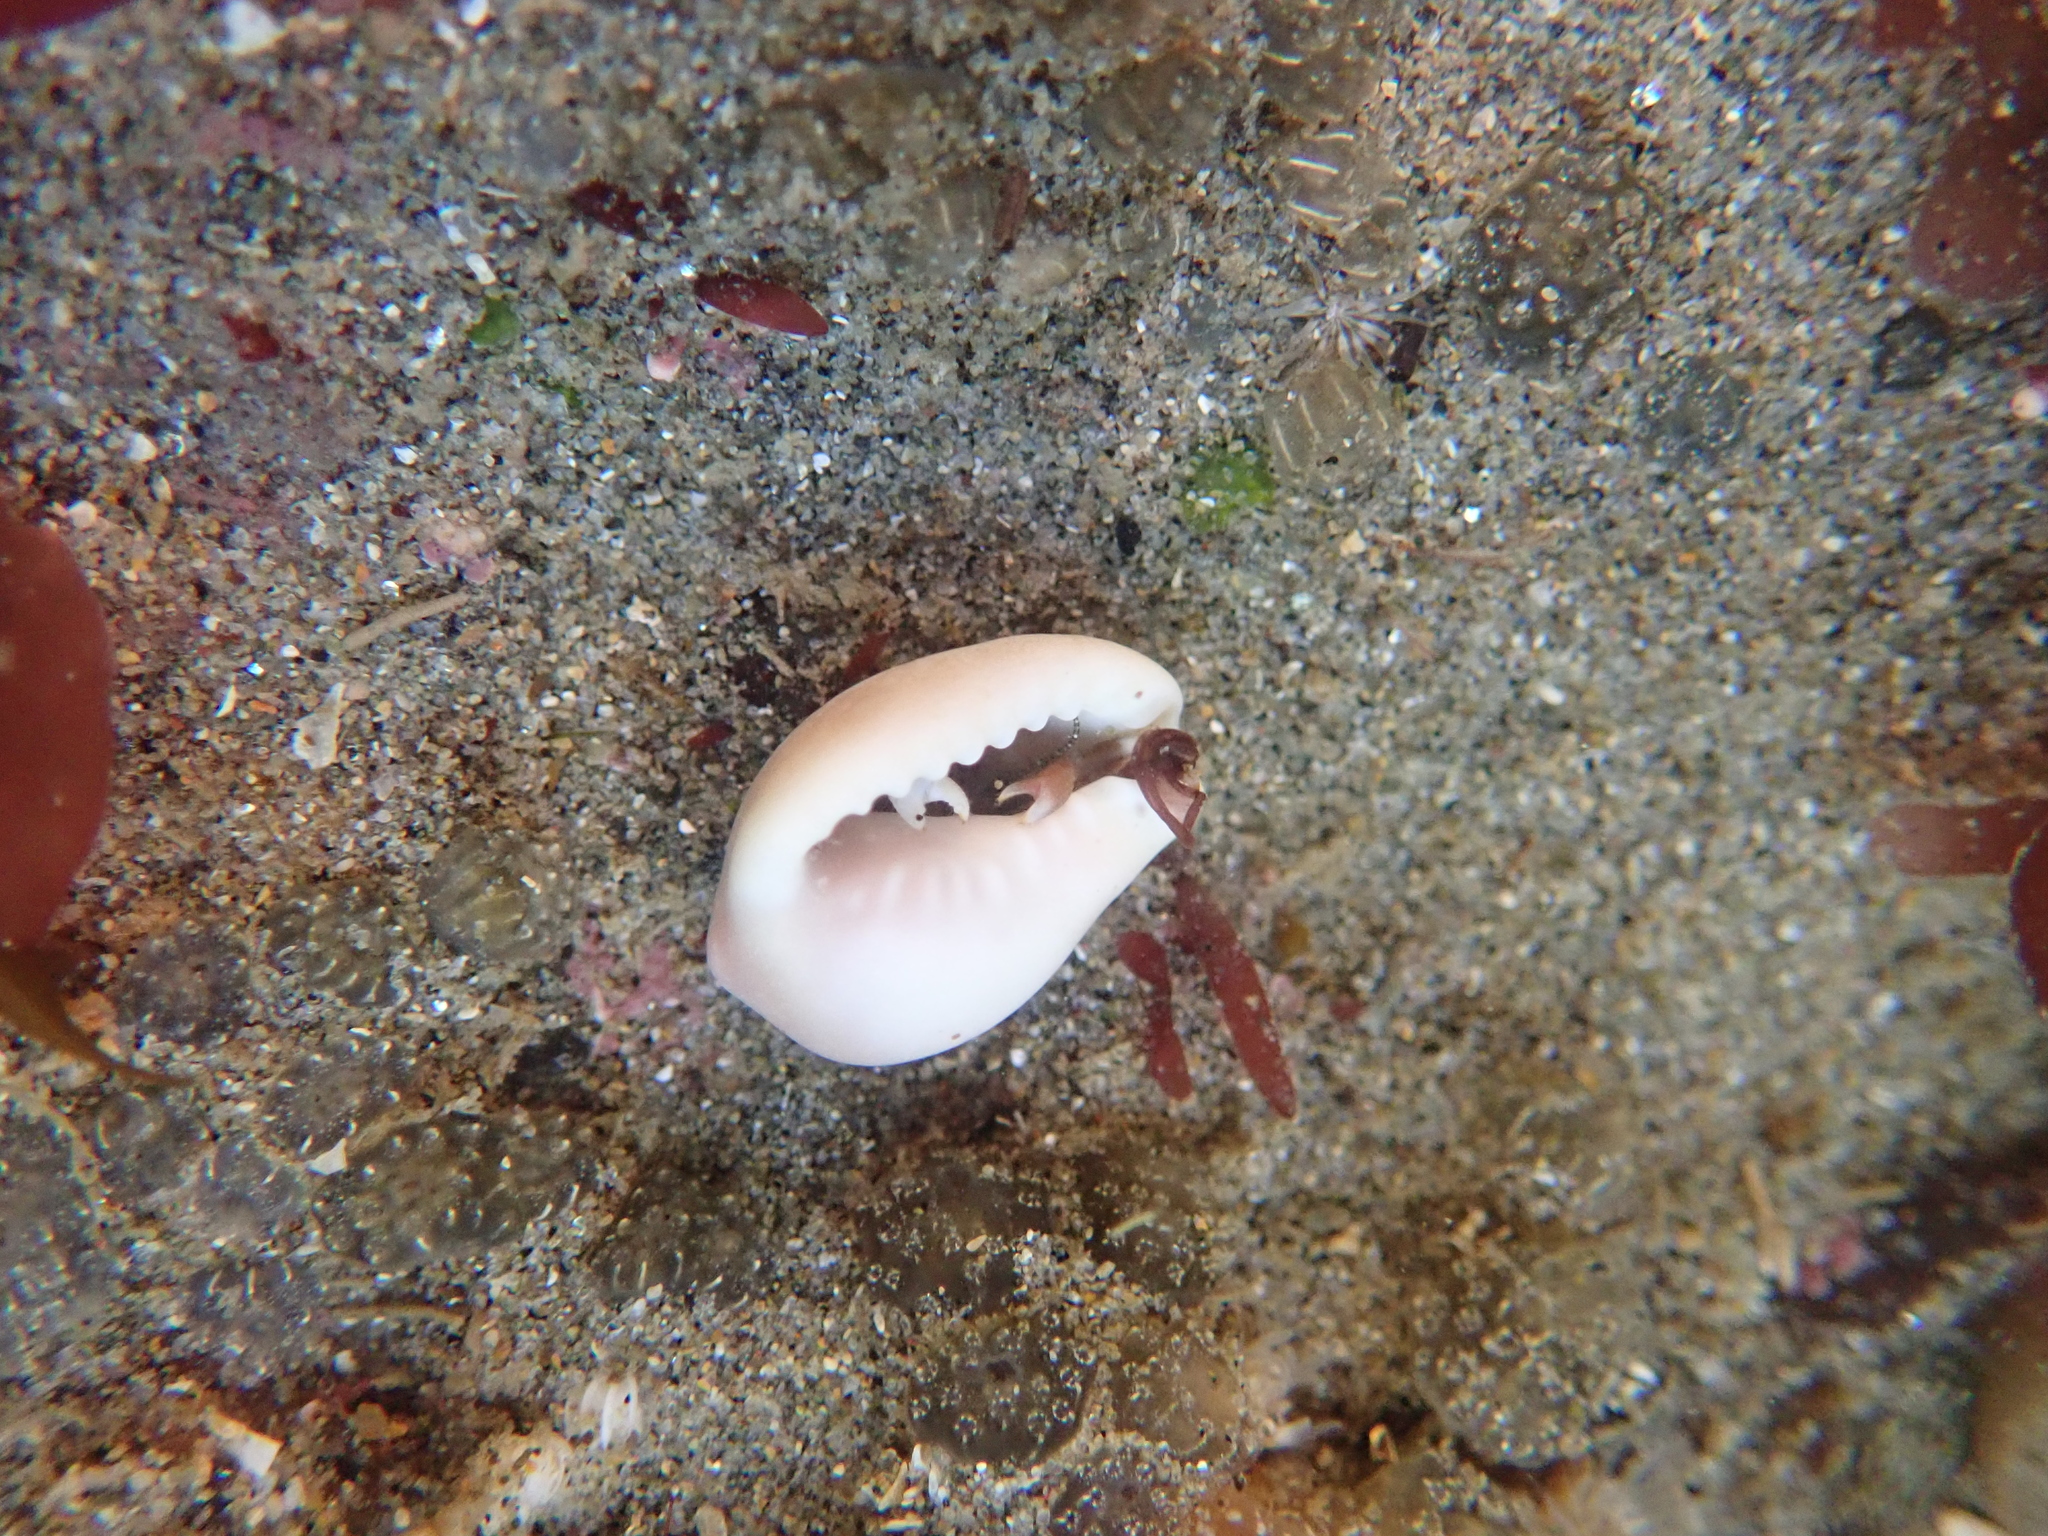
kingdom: Animalia
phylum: Mollusca
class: Gastropoda
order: Littorinimorpha
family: Eratoidae
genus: Hespererato
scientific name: Hespererato vitellina
